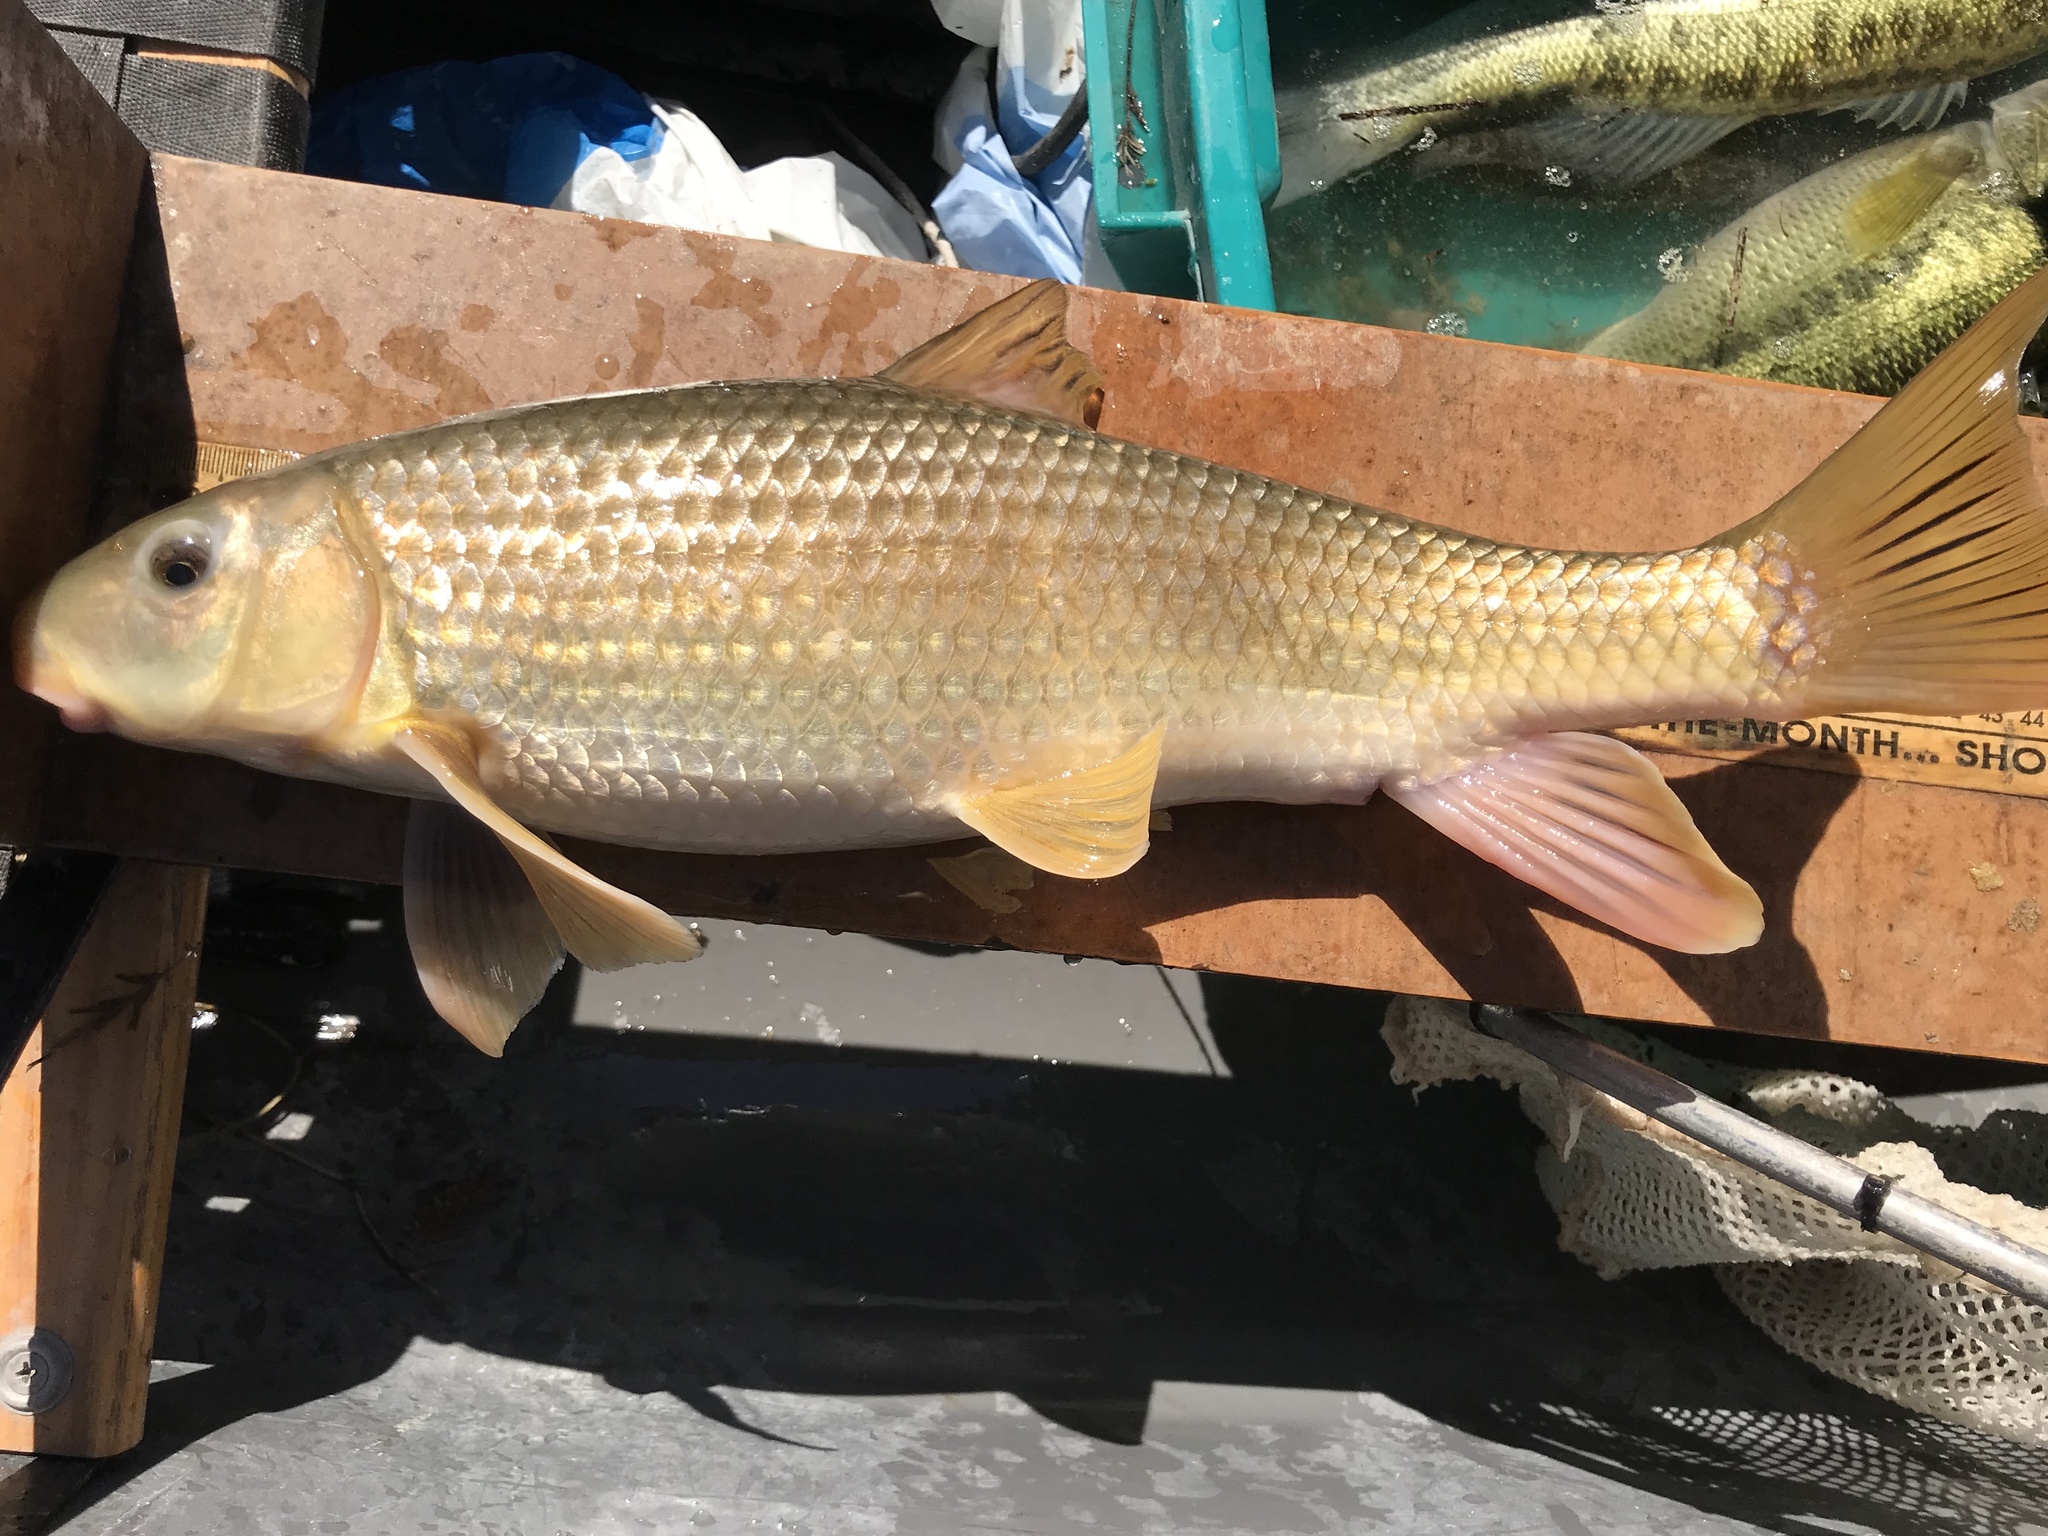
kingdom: Animalia
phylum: Chordata
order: Cypriniformes
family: Catostomidae
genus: Moxostoma
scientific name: Moxostoma congestum
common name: Gray redhorse
